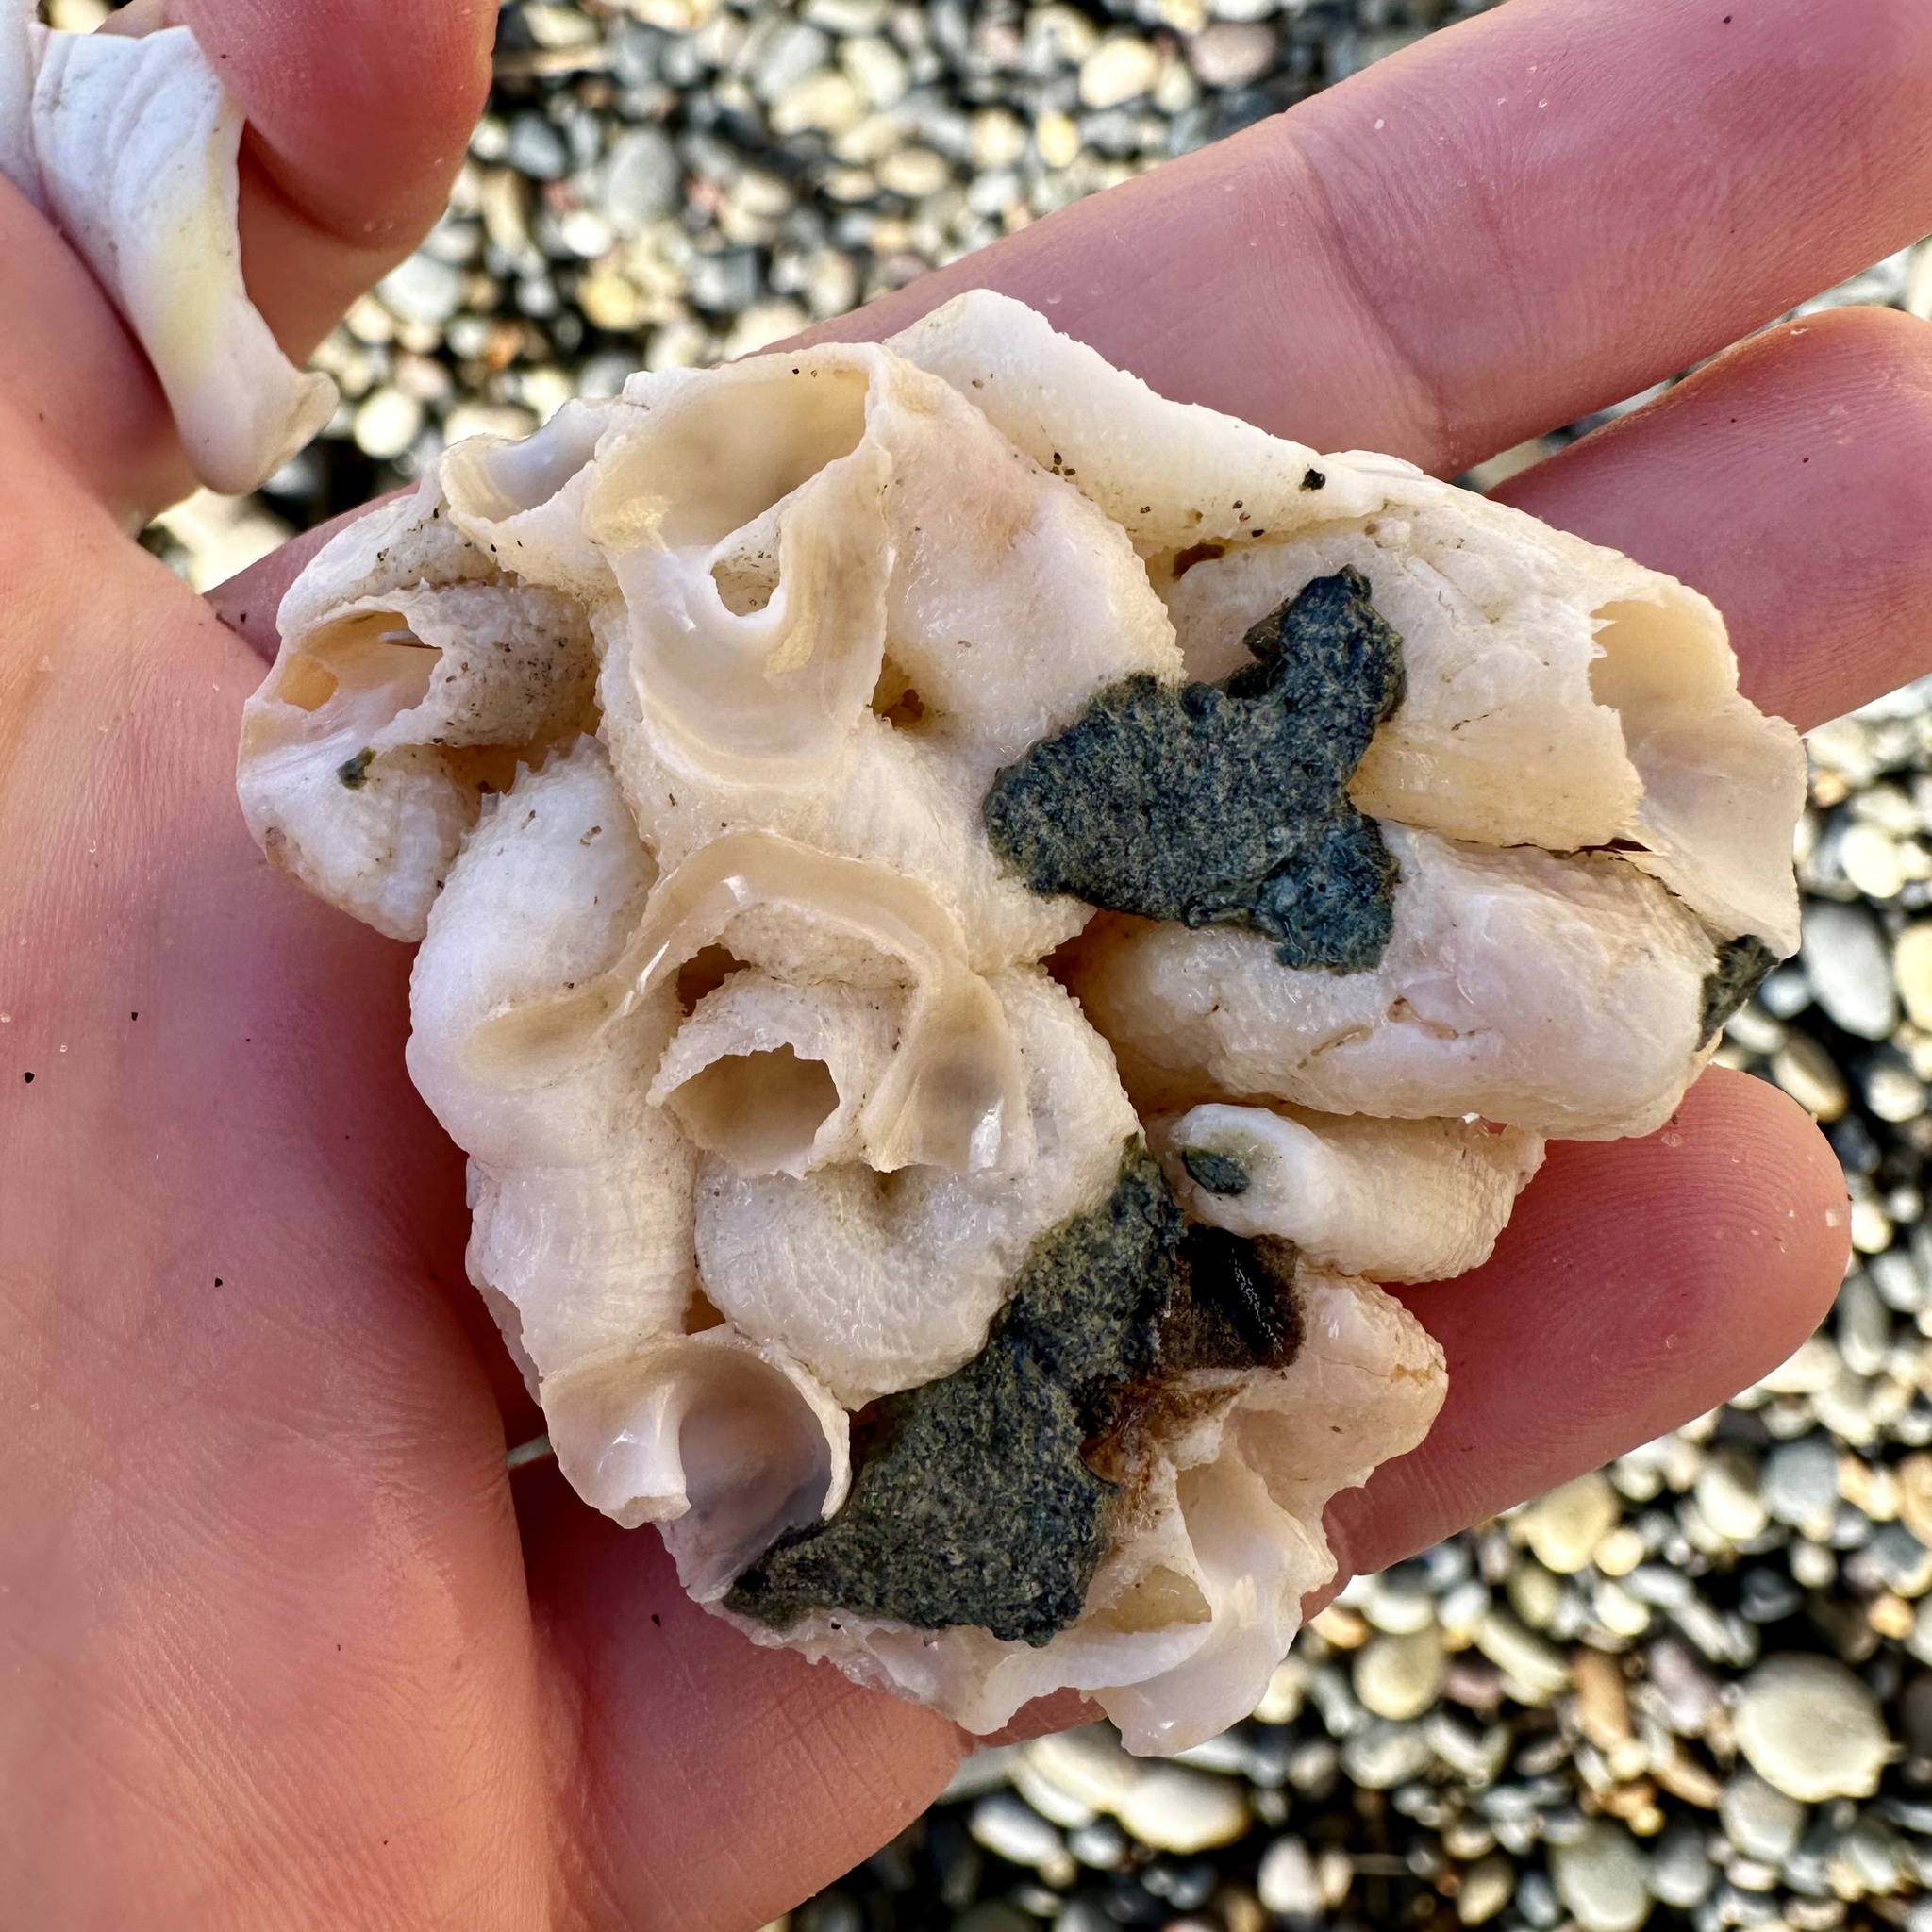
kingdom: Animalia
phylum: Mollusca
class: Gastropoda
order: Littorinimorpha
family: Vermetidae
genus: Thylacodes
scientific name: Thylacodes squamigerus
